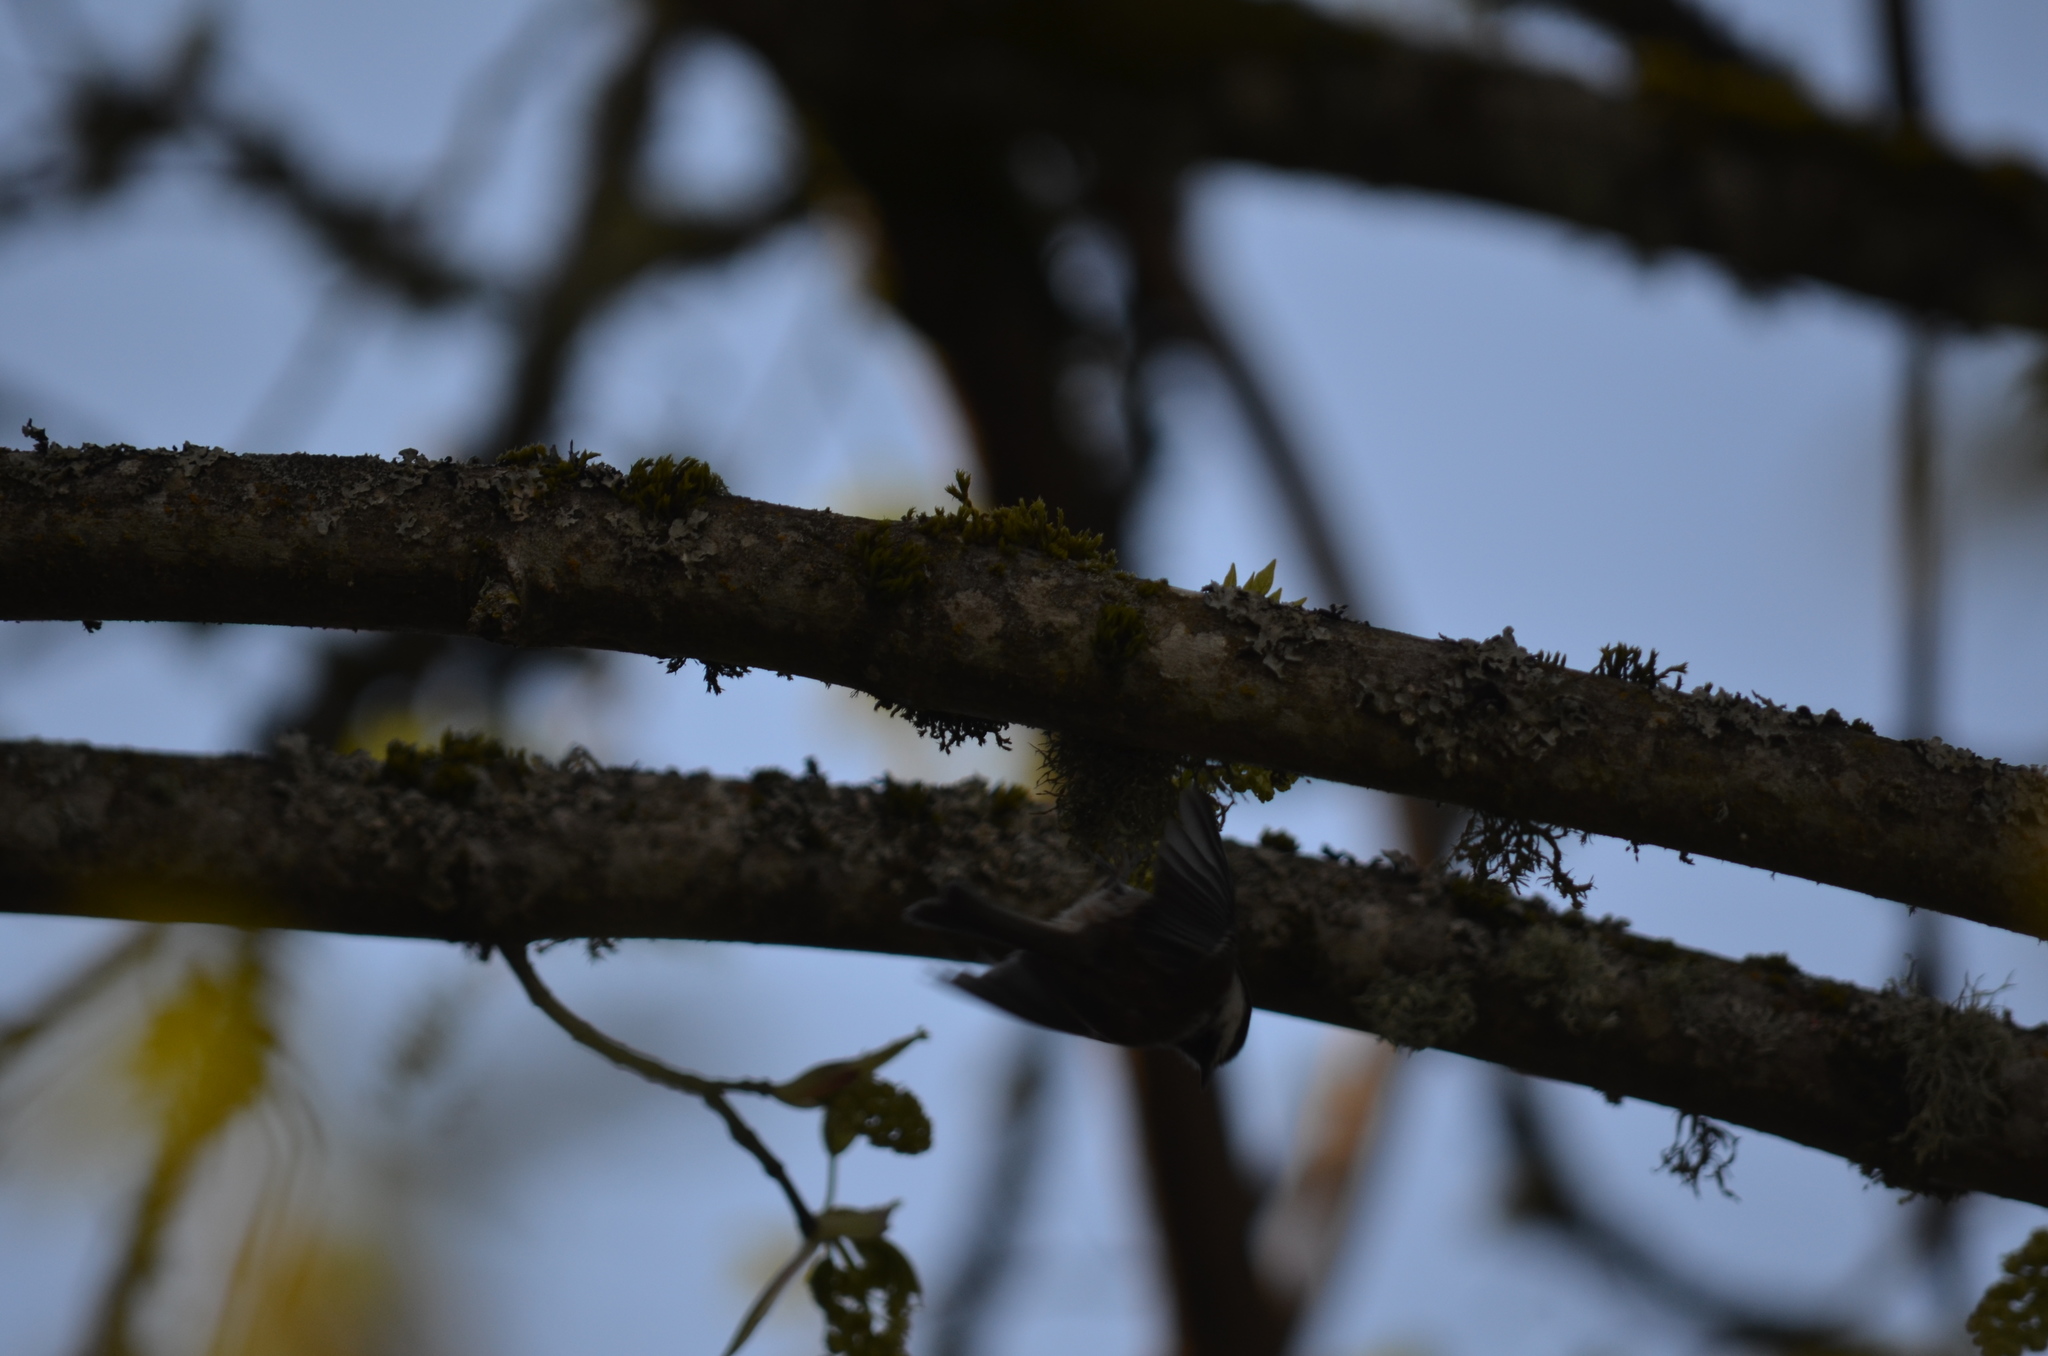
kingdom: Animalia
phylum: Chordata
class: Aves
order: Passeriformes
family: Paridae
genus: Poecile
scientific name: Poecile rufescens
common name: Chestnut-backed chickadee
